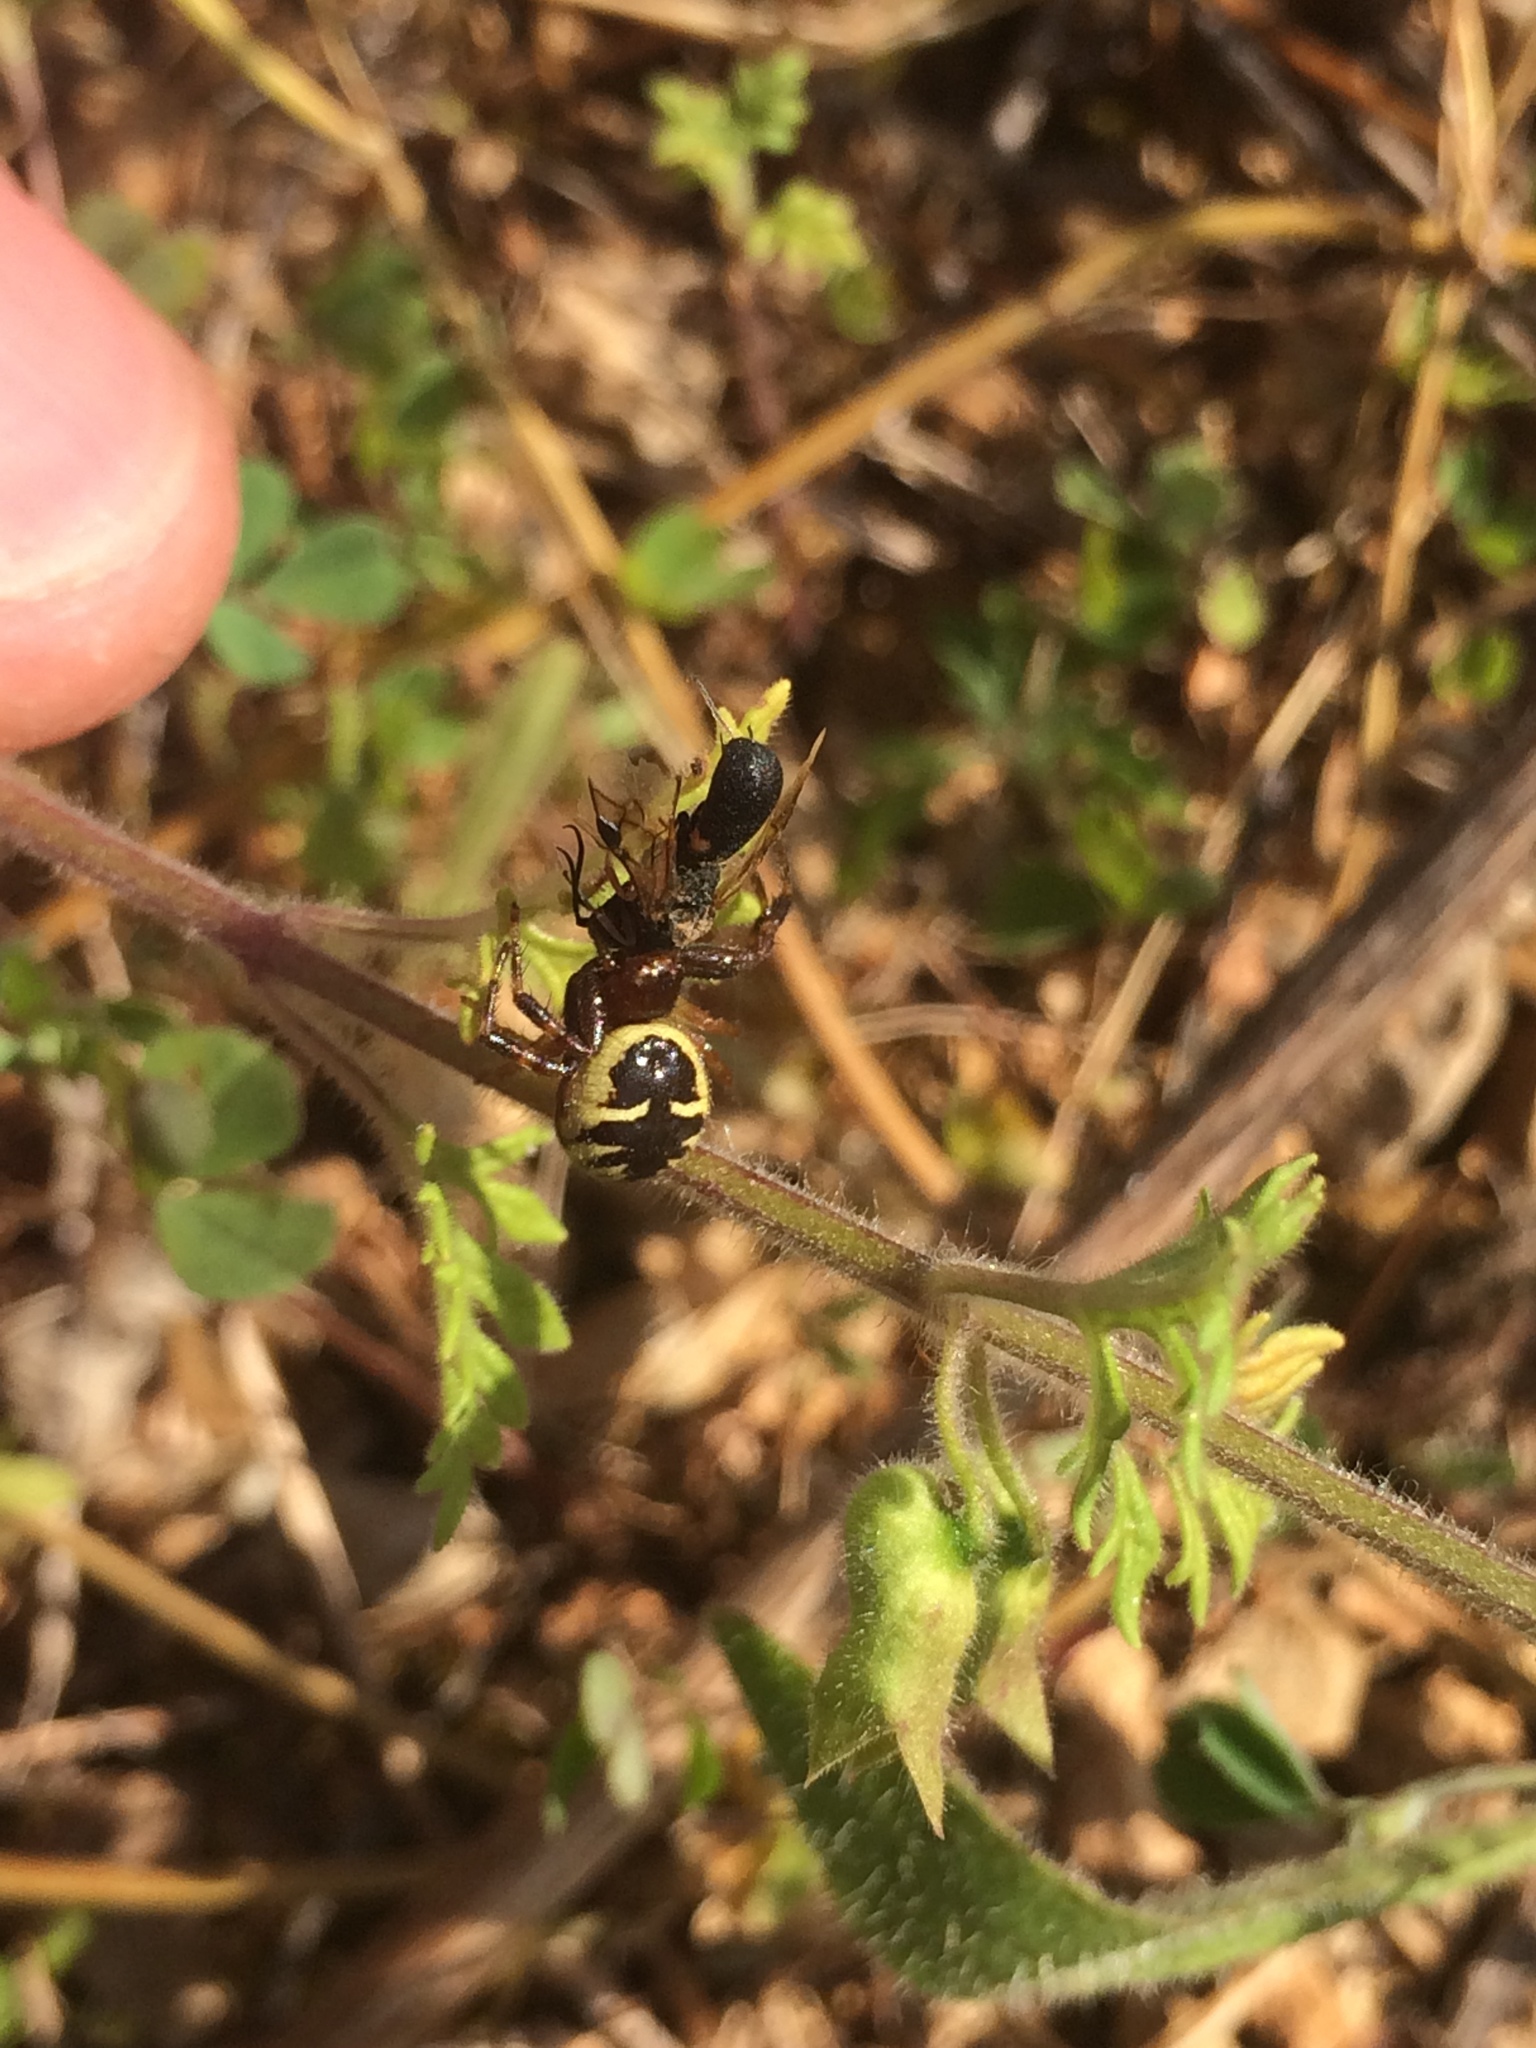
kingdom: Animalia
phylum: Arthropoda
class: Arachnida
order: Araneae
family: Thomisidae
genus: Synema
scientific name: Synema globosum
